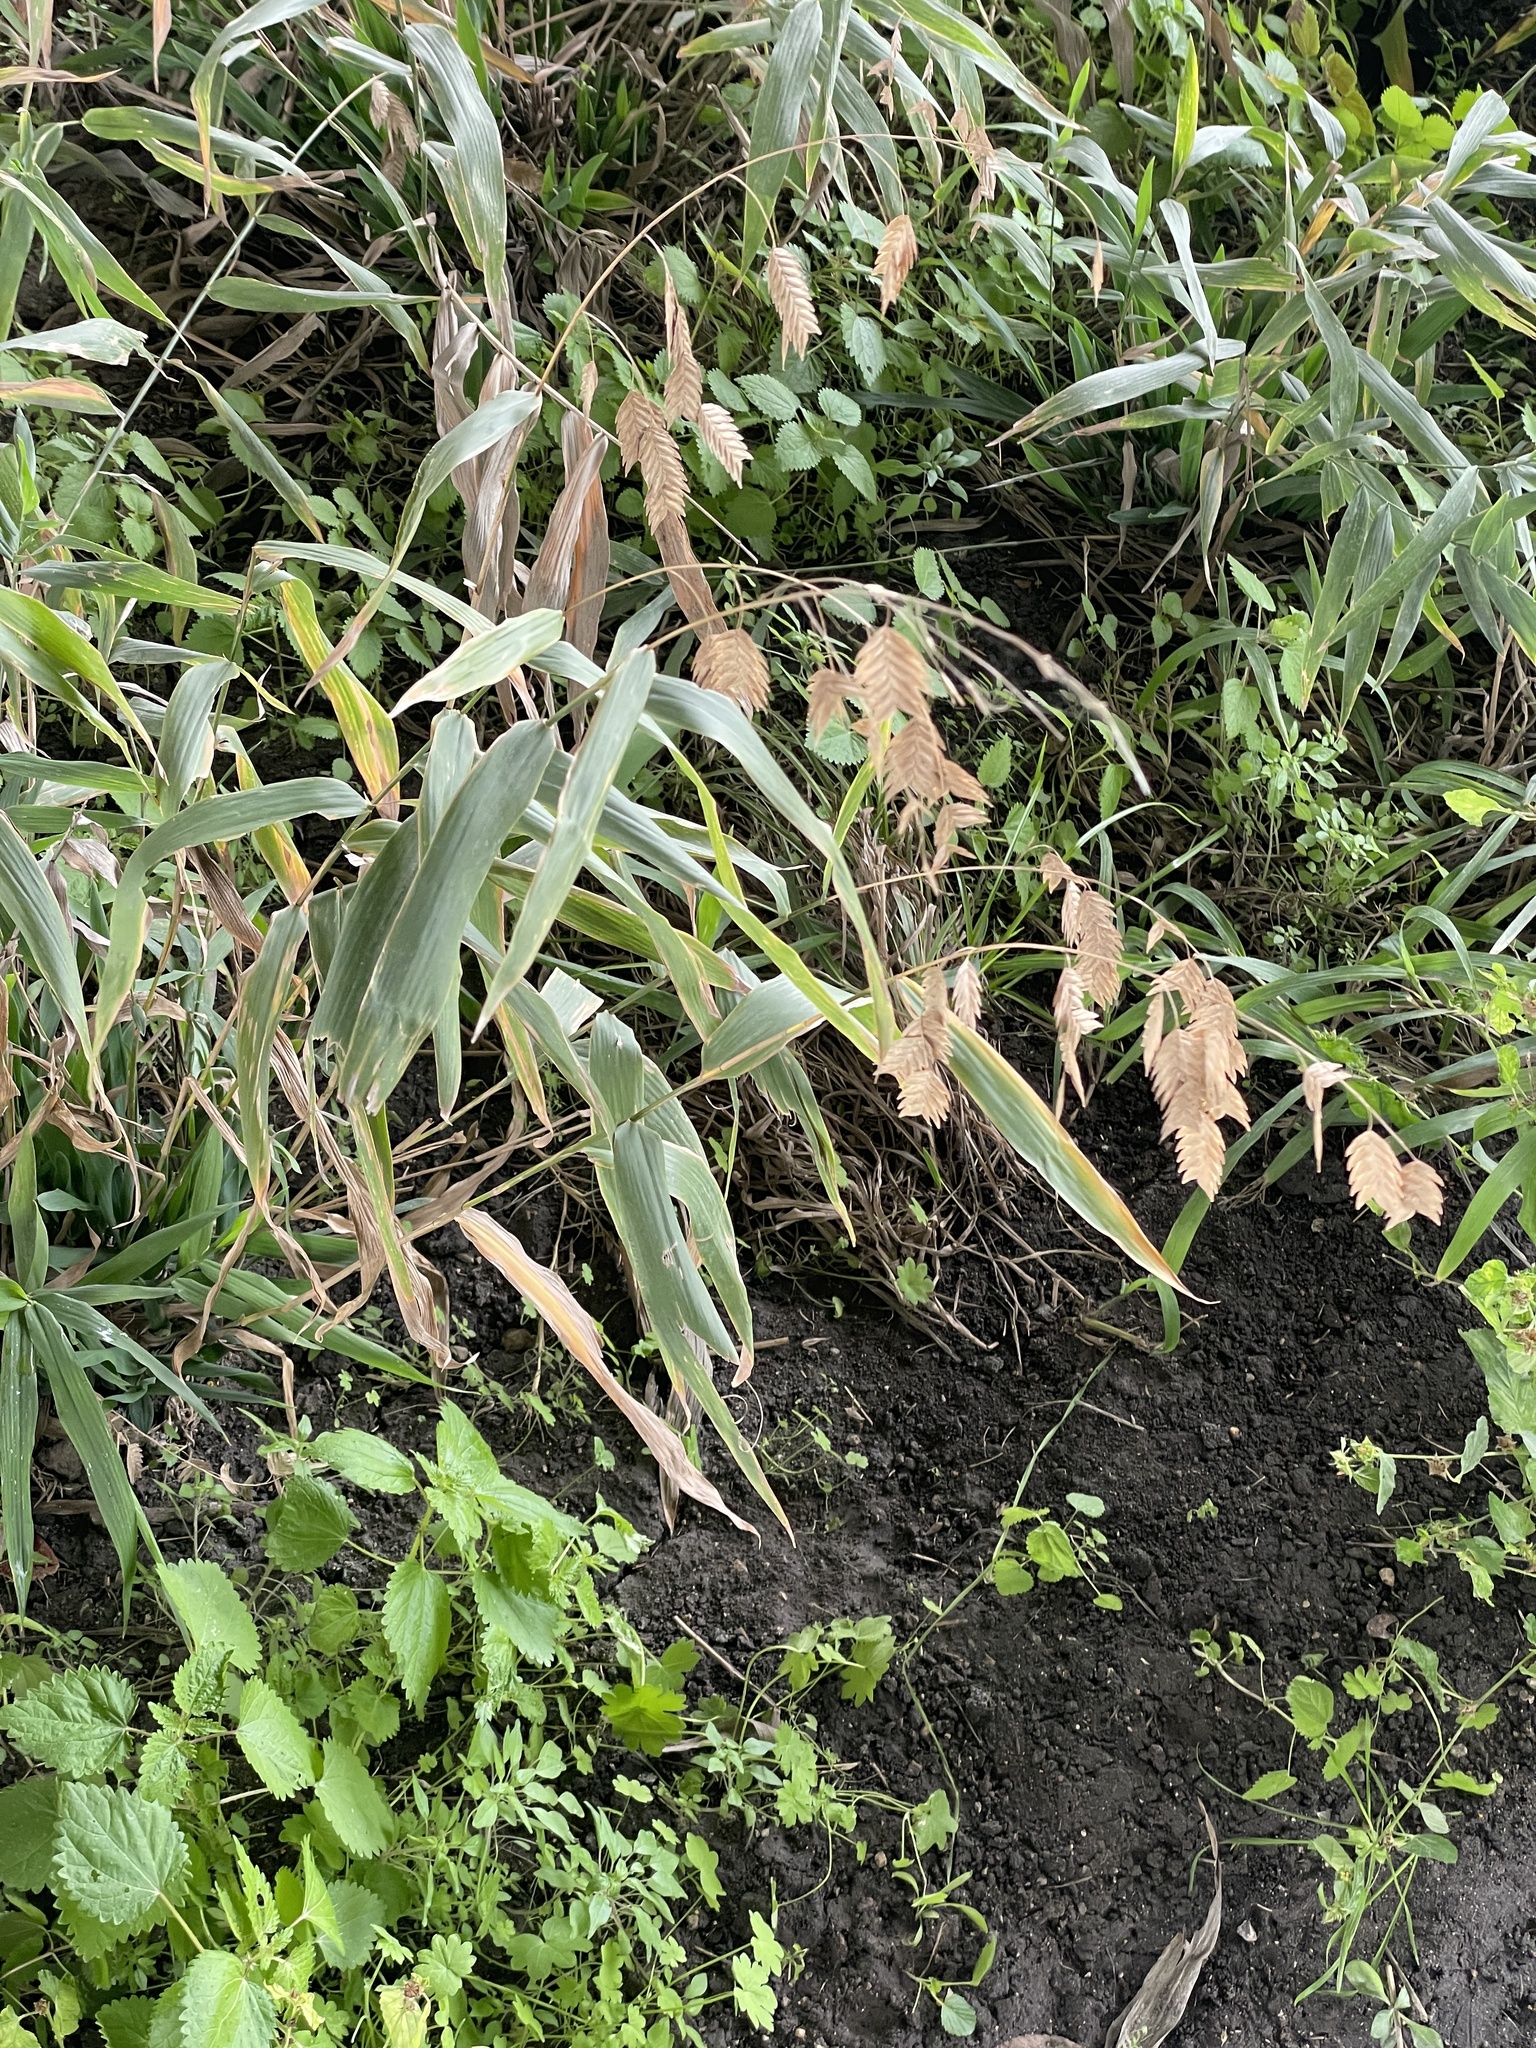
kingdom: Plantae
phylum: Tracheophyta
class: Liliopsida
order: Poales
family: Poaceae
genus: Chasmanthium
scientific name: Chasmanthium latifolium
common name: Broad-leaved chasmanthium
